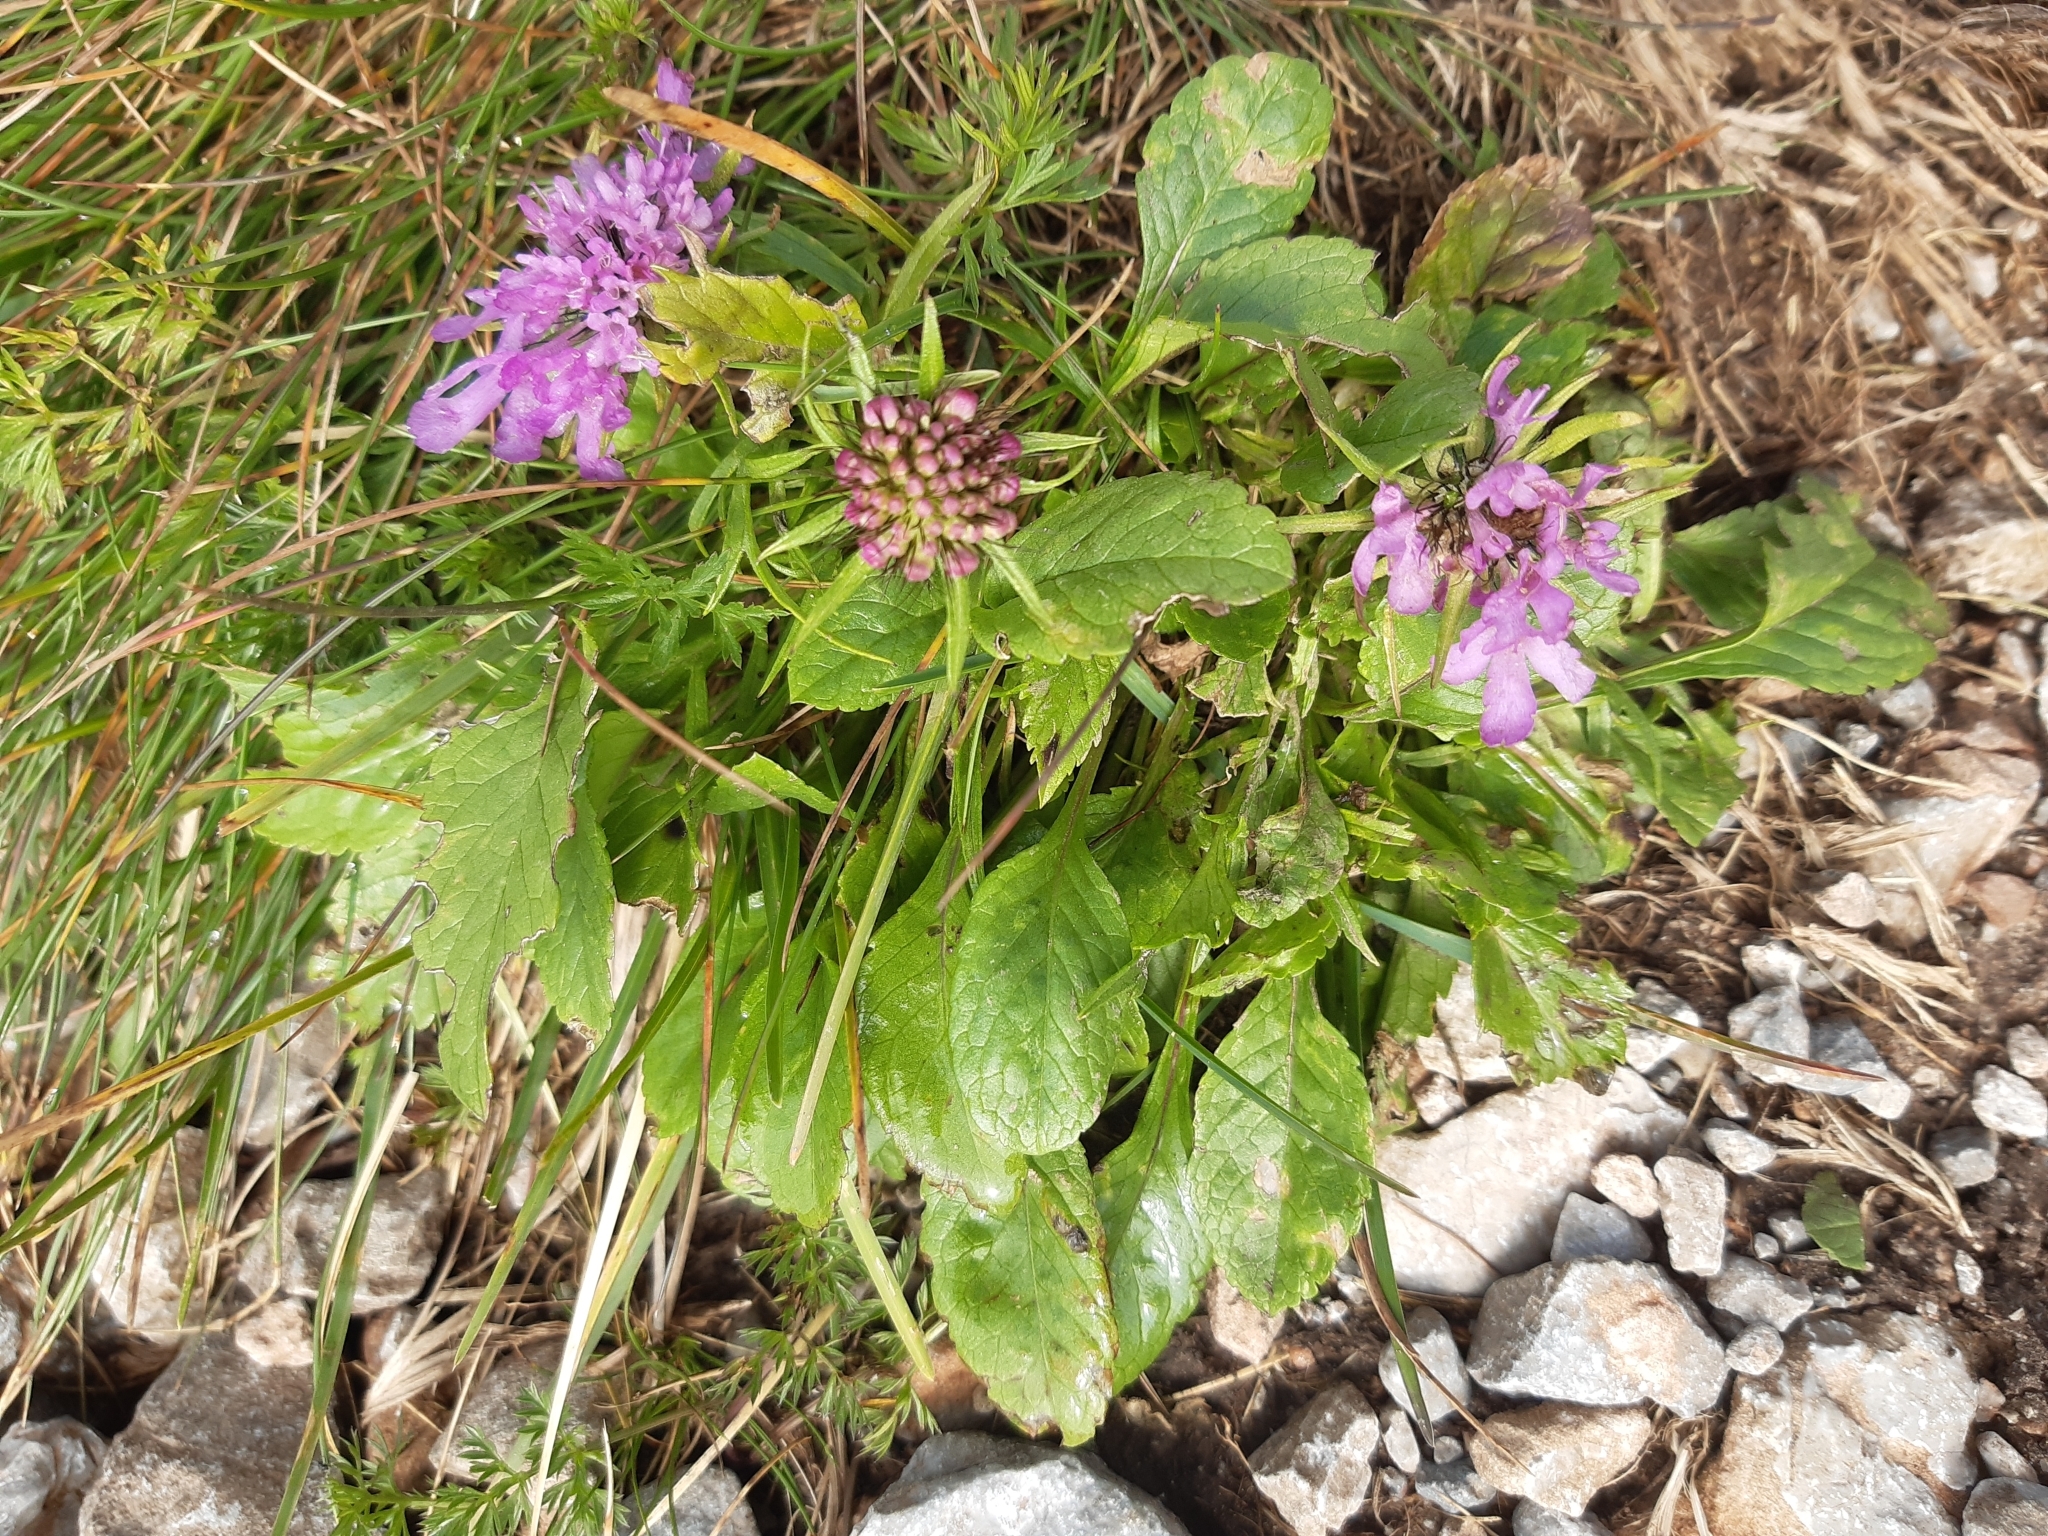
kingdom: Plantae
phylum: Tracheophyta
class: Magnoliopsida
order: Dipsacales
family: Caprifoliaceae
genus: Scabiosa
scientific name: Scabiosa lucida
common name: Shining scabious
